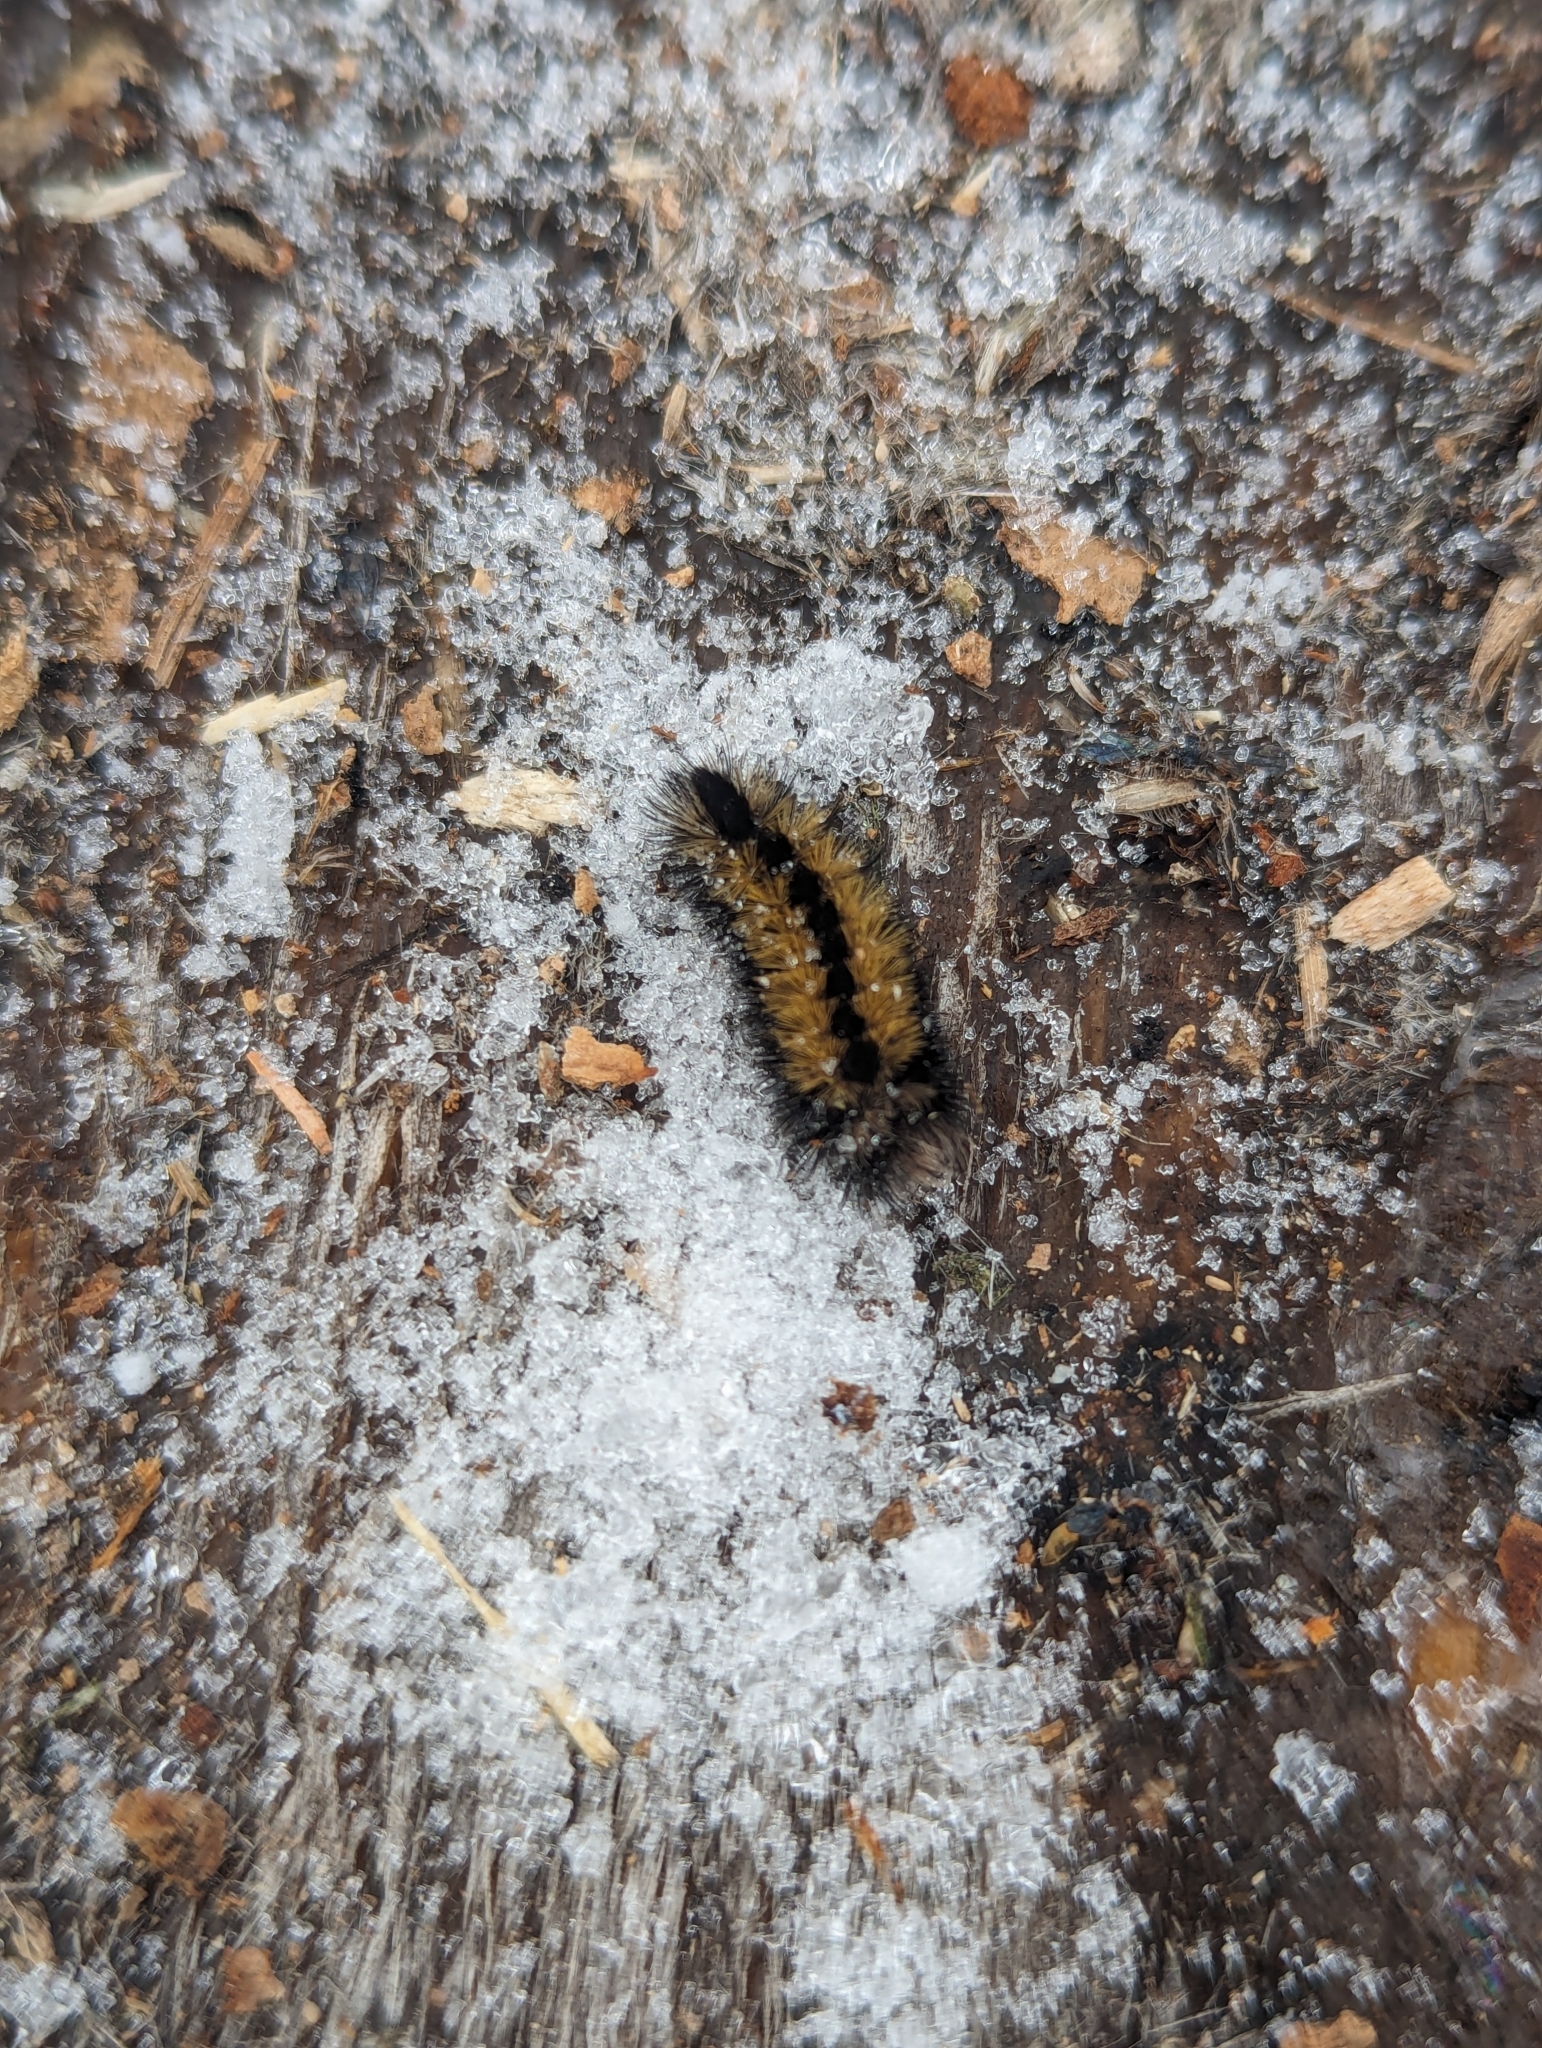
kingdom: Animalia
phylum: Arthropoda
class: Insecta
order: Lepidoptera
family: Erebidae
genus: Ctenucha
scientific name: Ctenucha virginica
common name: Virginia ctenucha moth
